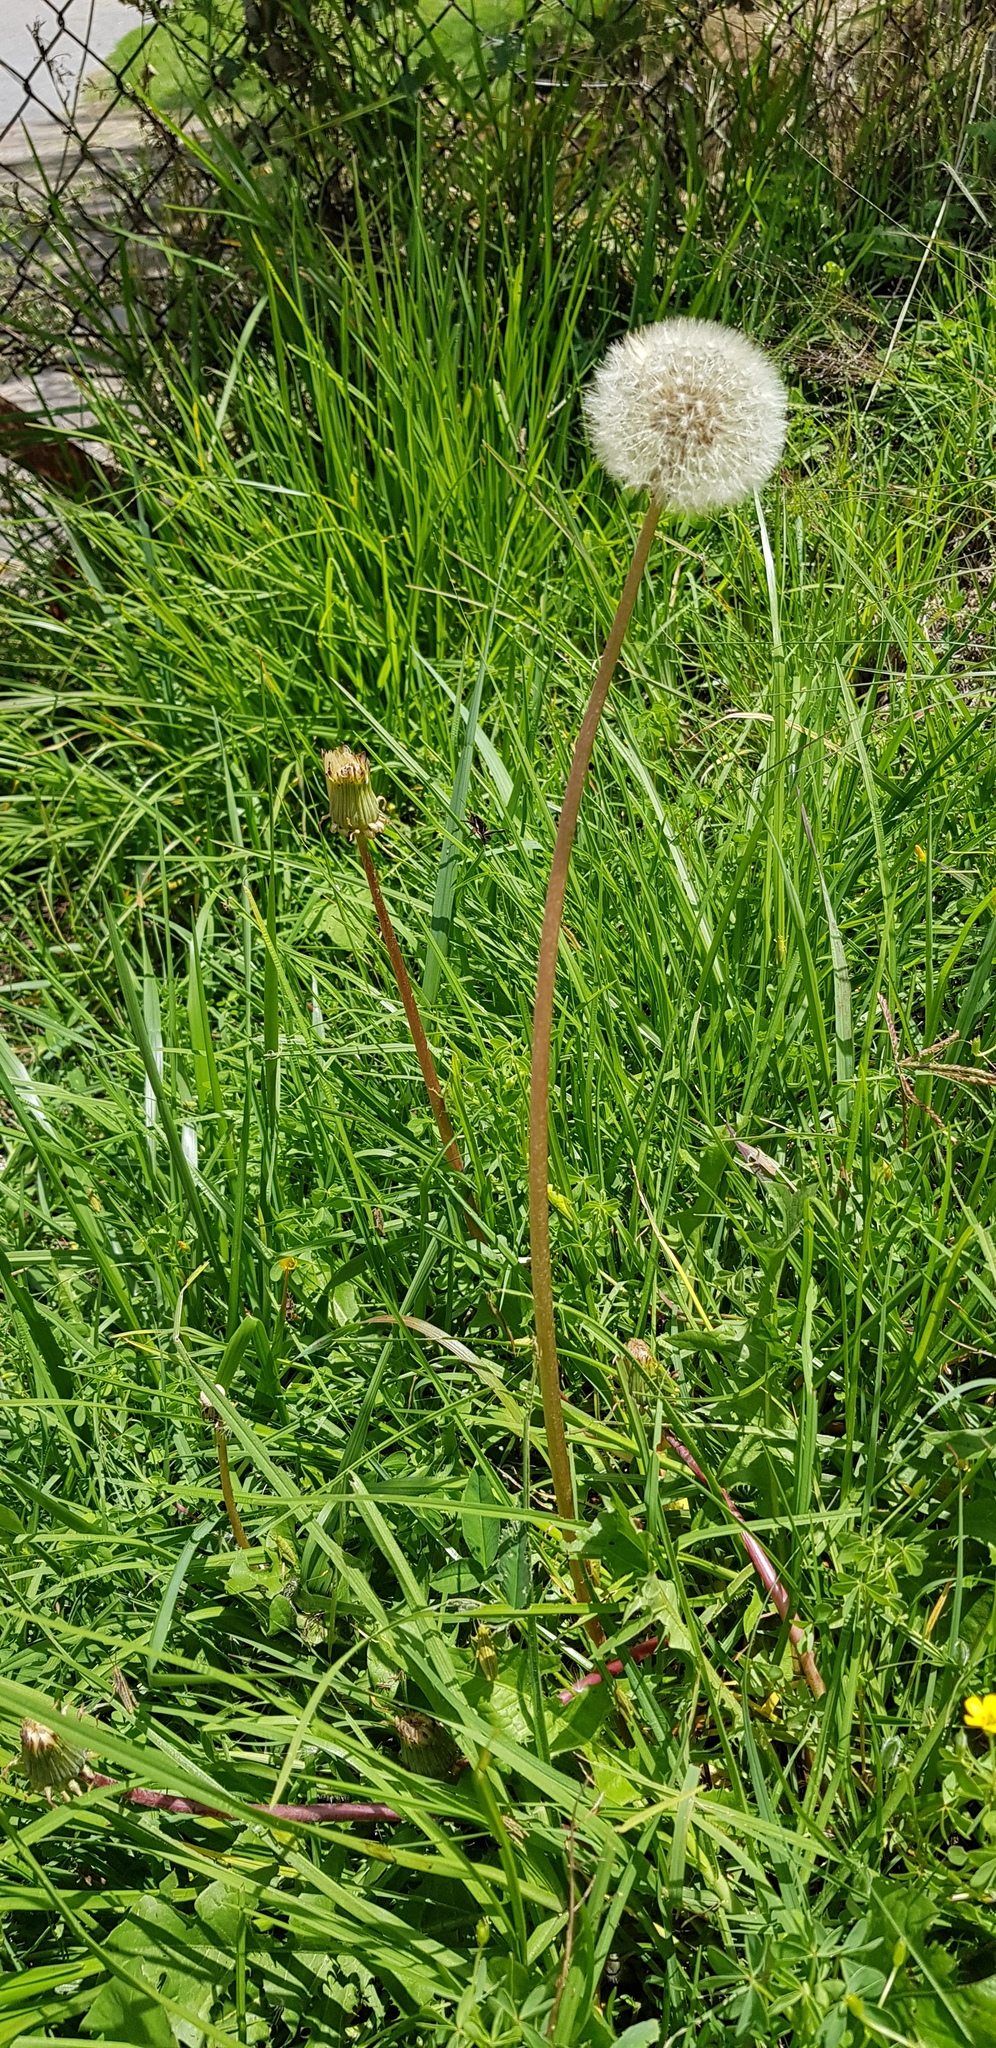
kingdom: Plantae
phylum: Tracheophyta
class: Magnoliopsida
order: Asterales
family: Asteraceae
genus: Taraxacum
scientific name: Taraxacum officinale
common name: Common dandelion
